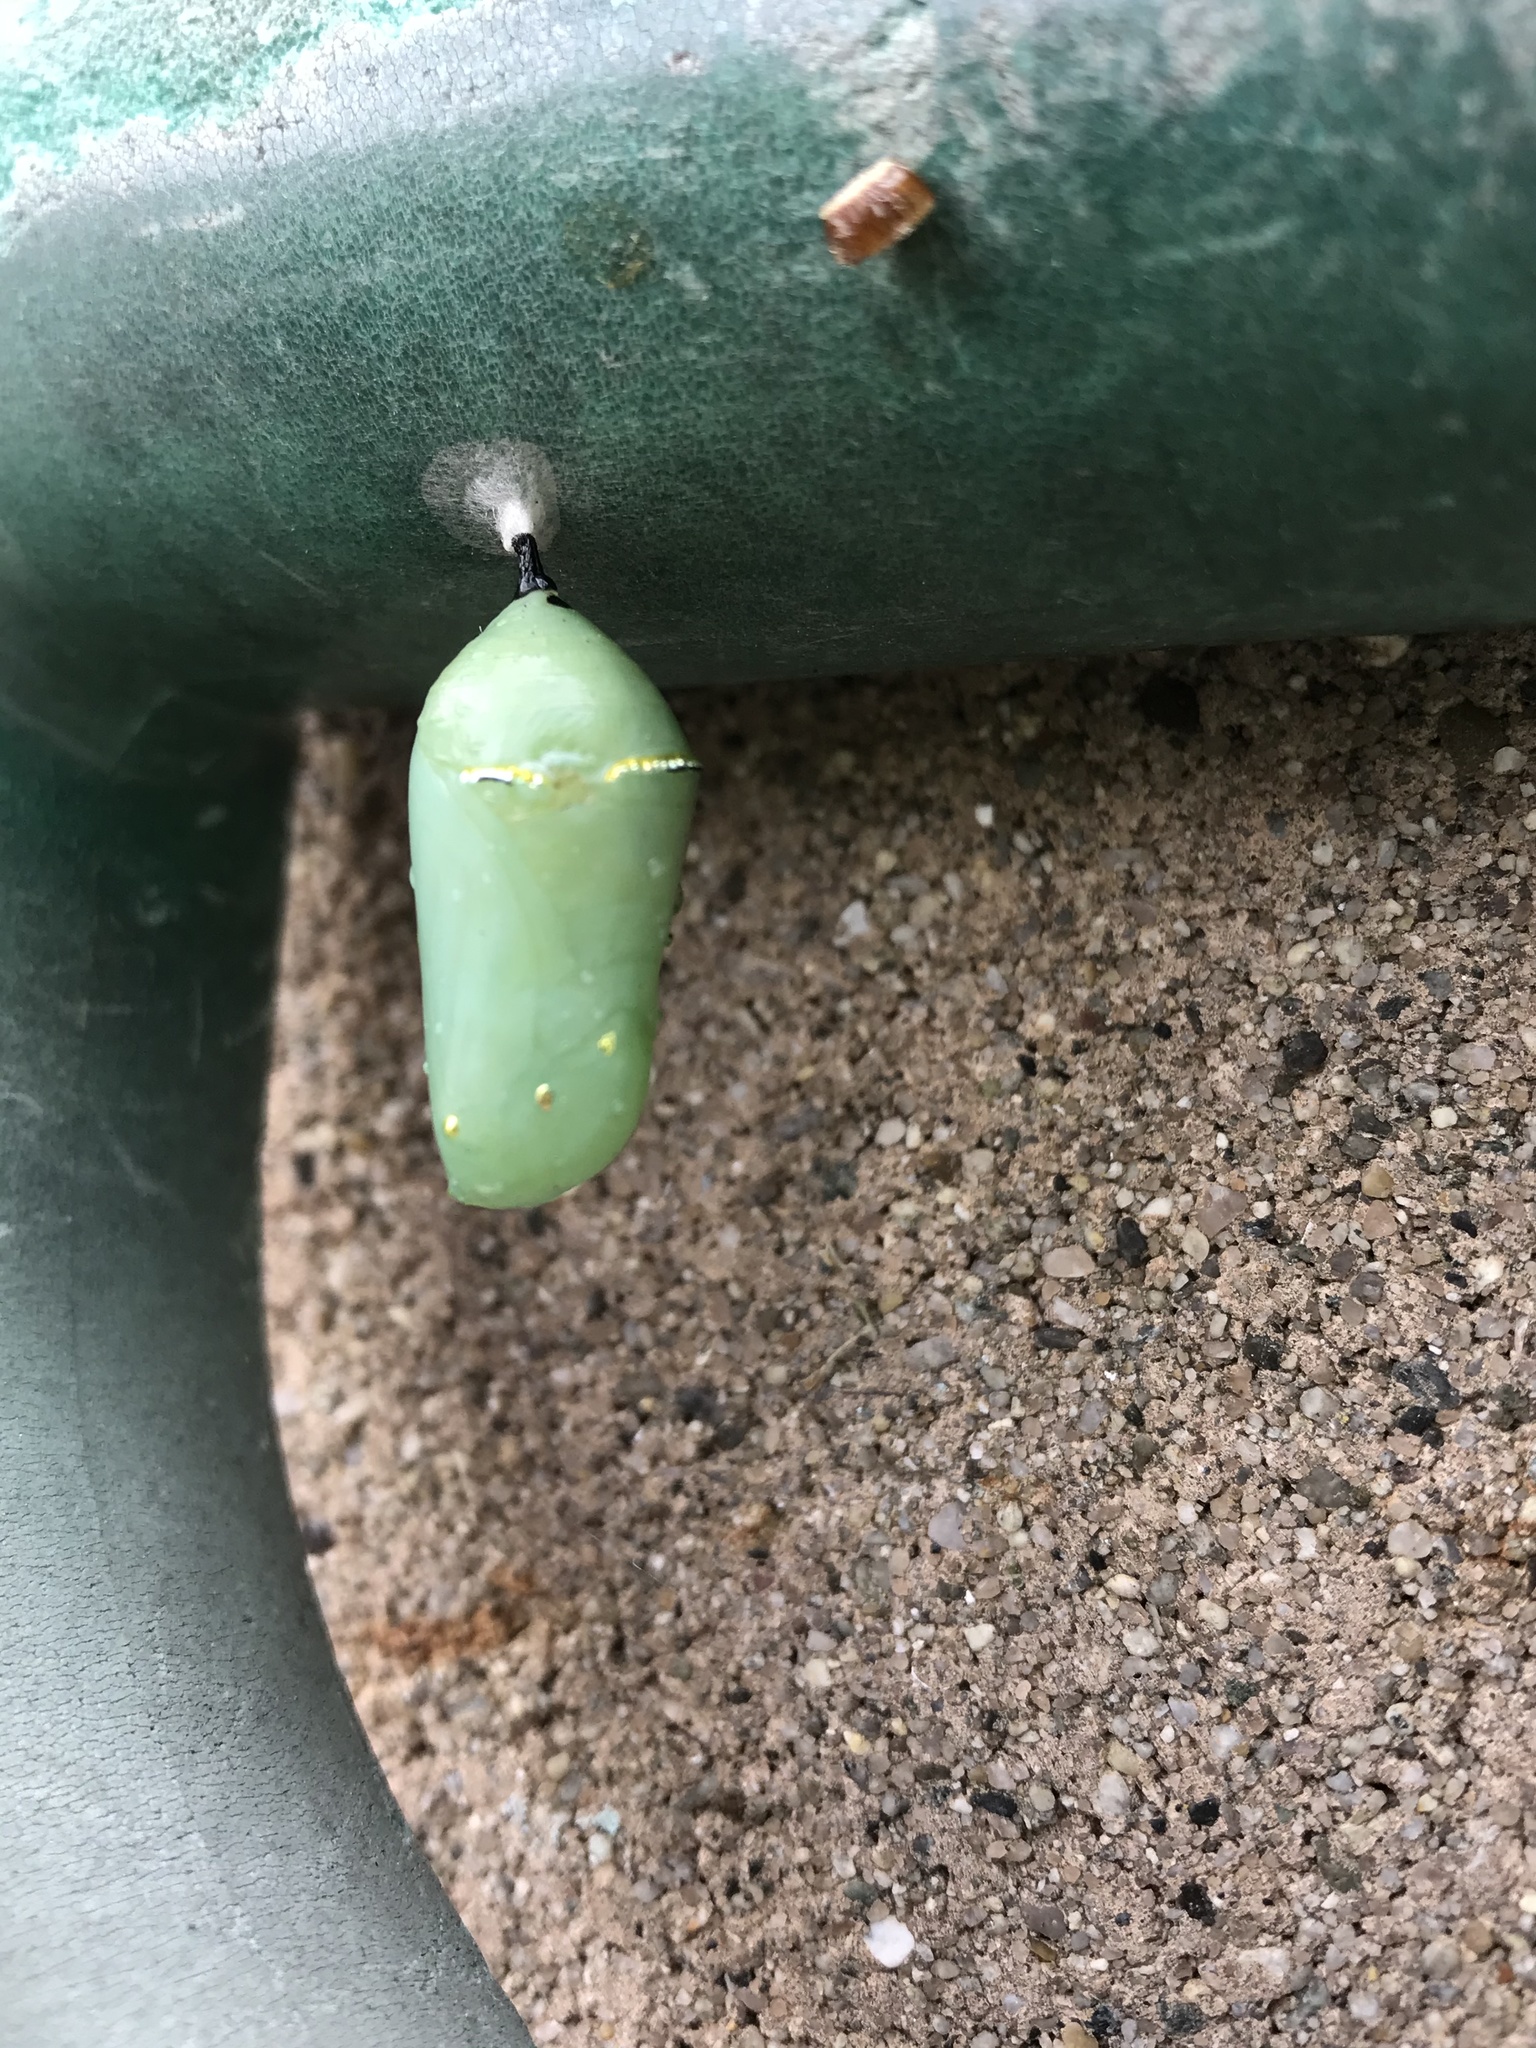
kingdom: Animalia
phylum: Arthropoda
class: Insecta
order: Lepidoptera
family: Nymphalidae
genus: Danaus
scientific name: Danaus plexippus
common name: Monarch
